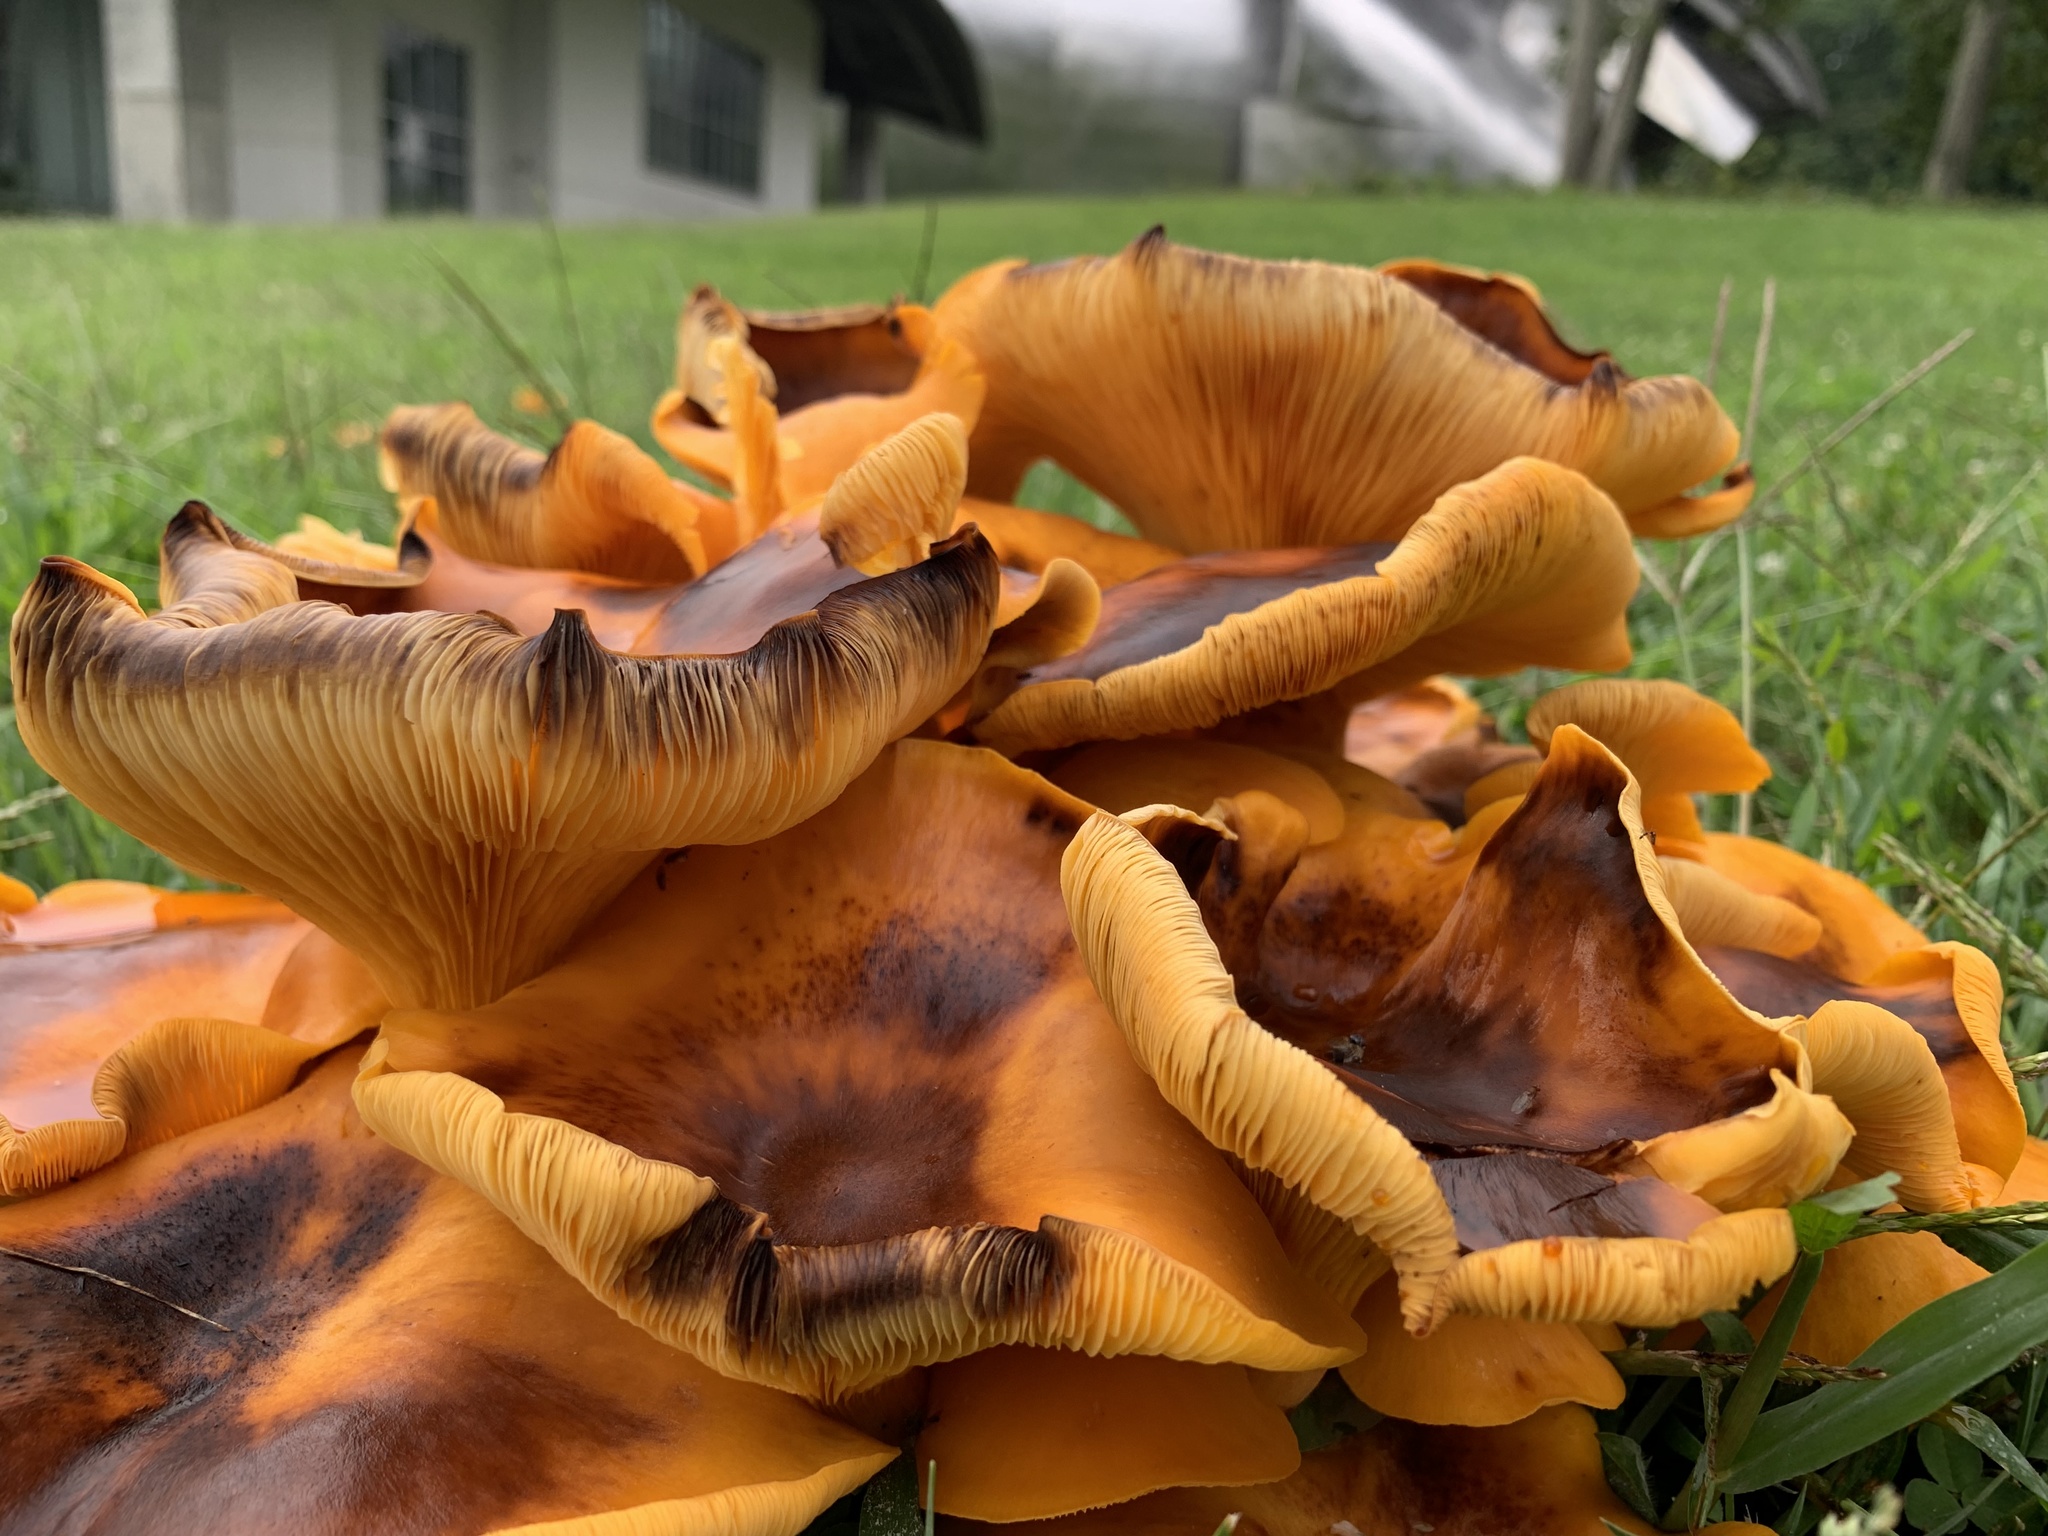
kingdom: Fungi
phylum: Basidiomycota
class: Agaricomycetes
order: Agaricales
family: Omphalotaceae
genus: Omphalotus
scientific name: Omphalotus illudens
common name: Jack o lantern
